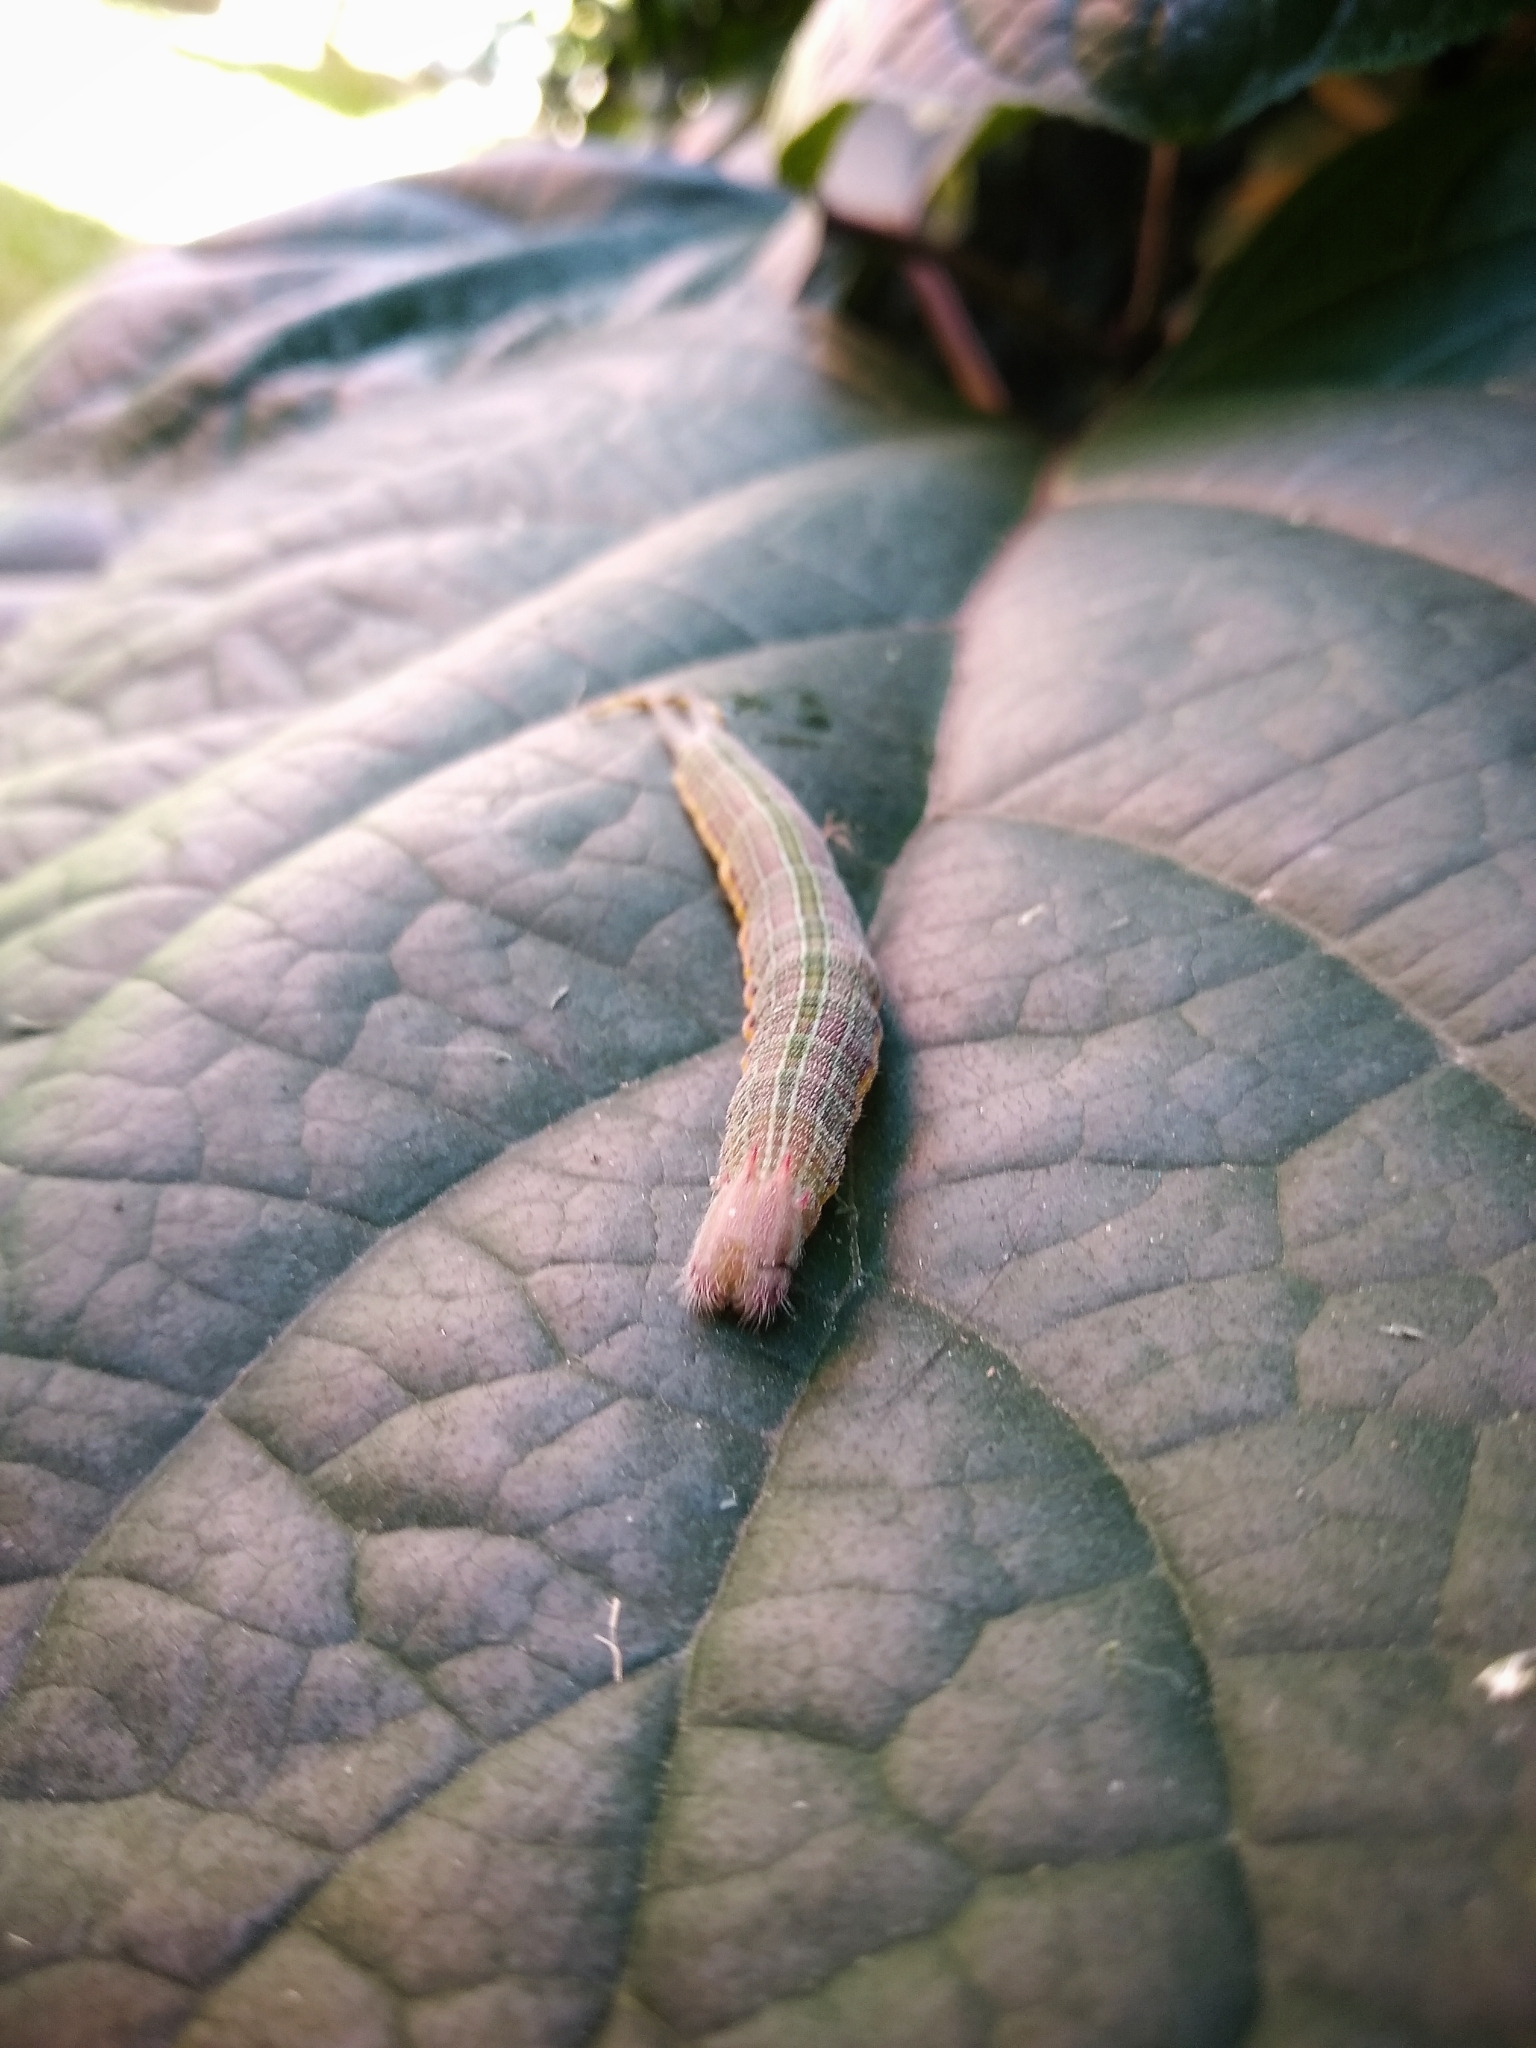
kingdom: Animalia
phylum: Arthropoda
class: Insecta
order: Lepidoptera
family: Nymphalidae
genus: Opsiphanes
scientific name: Opsiphanes invirae
